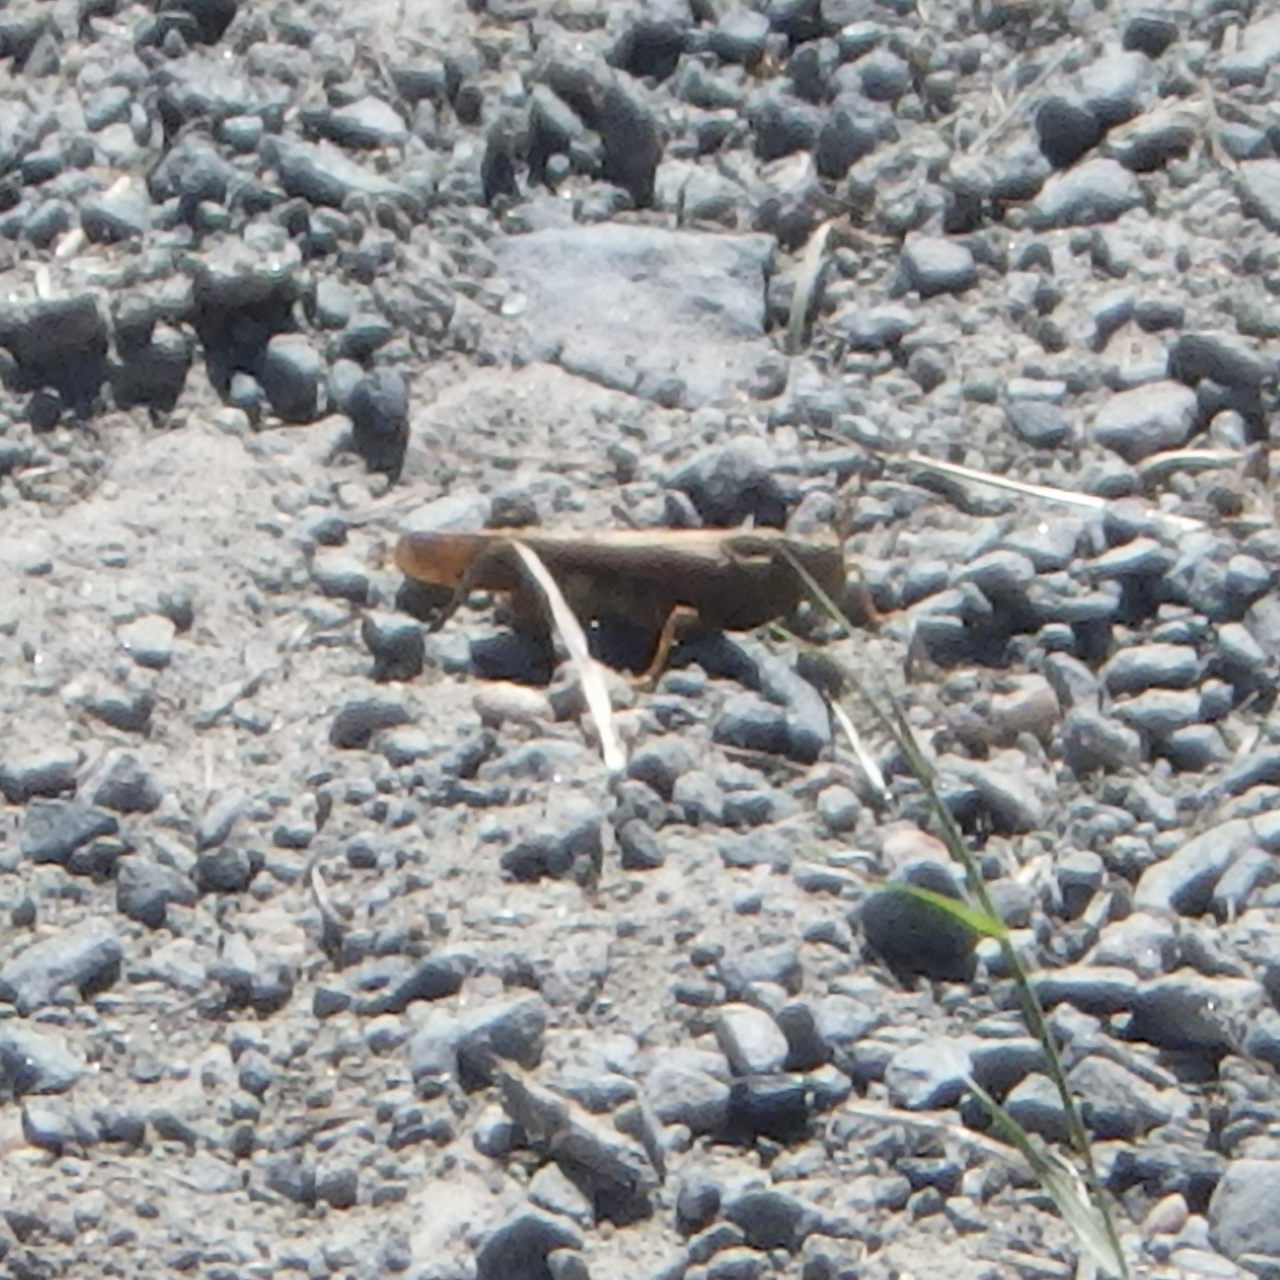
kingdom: Animalia
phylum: Arthropoda
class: Insecta
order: Orthoptera
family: Acrididae
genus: Dissosteira
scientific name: Dissosteira carolina
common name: Carolina grasshopper
